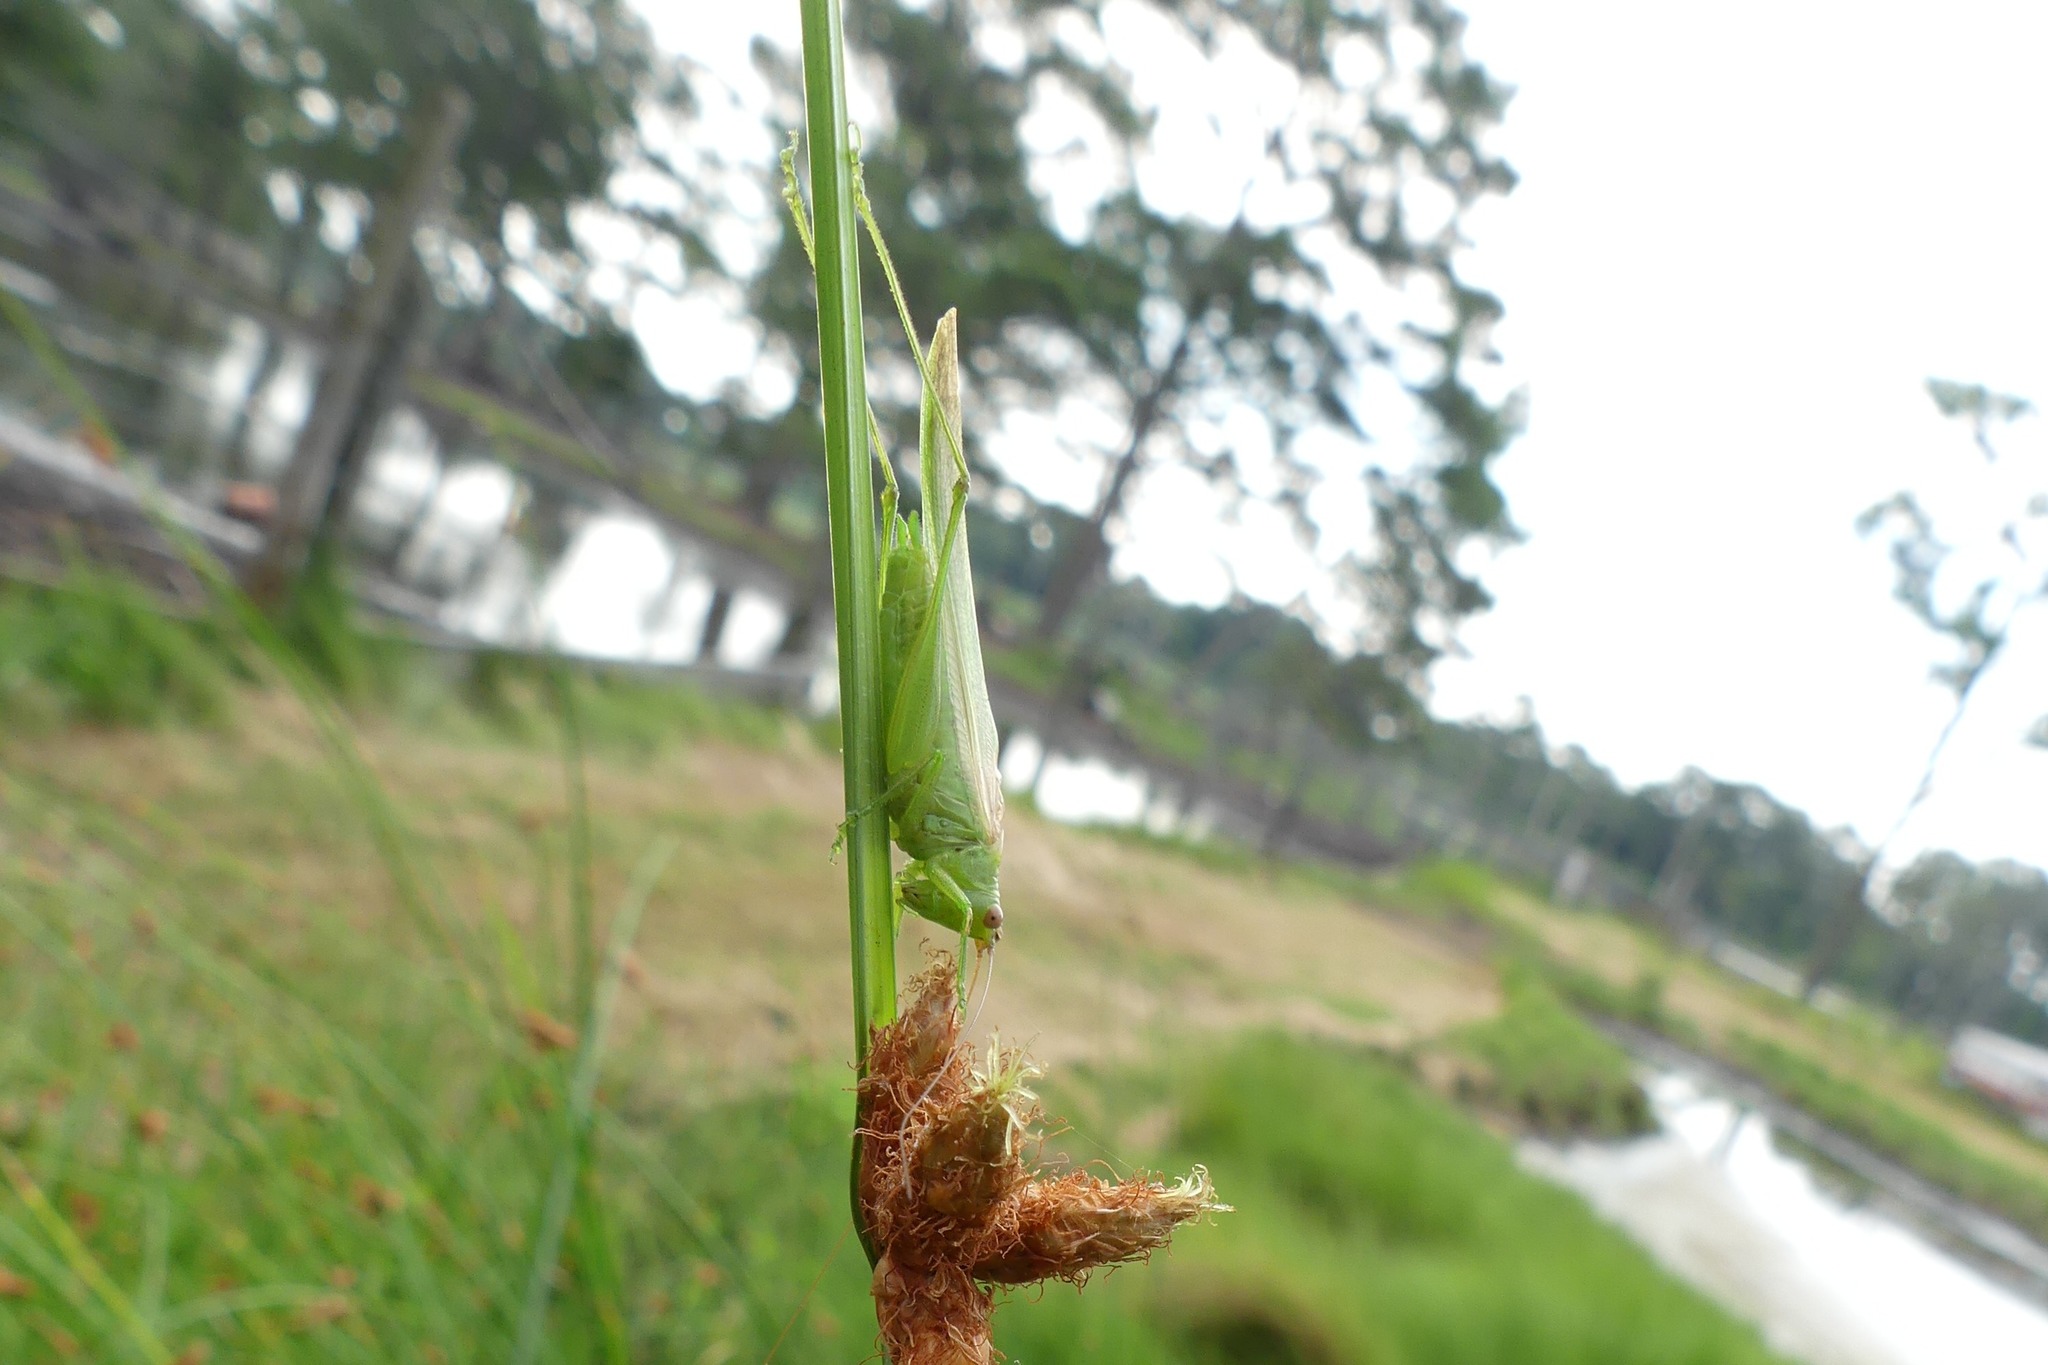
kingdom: Animalia
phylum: Arthropoda
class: Insecta
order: Orthoptera
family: Tettigoniidae
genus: Conocephalus
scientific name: Conocephalus fasciatus
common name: Slender meadow katydid
